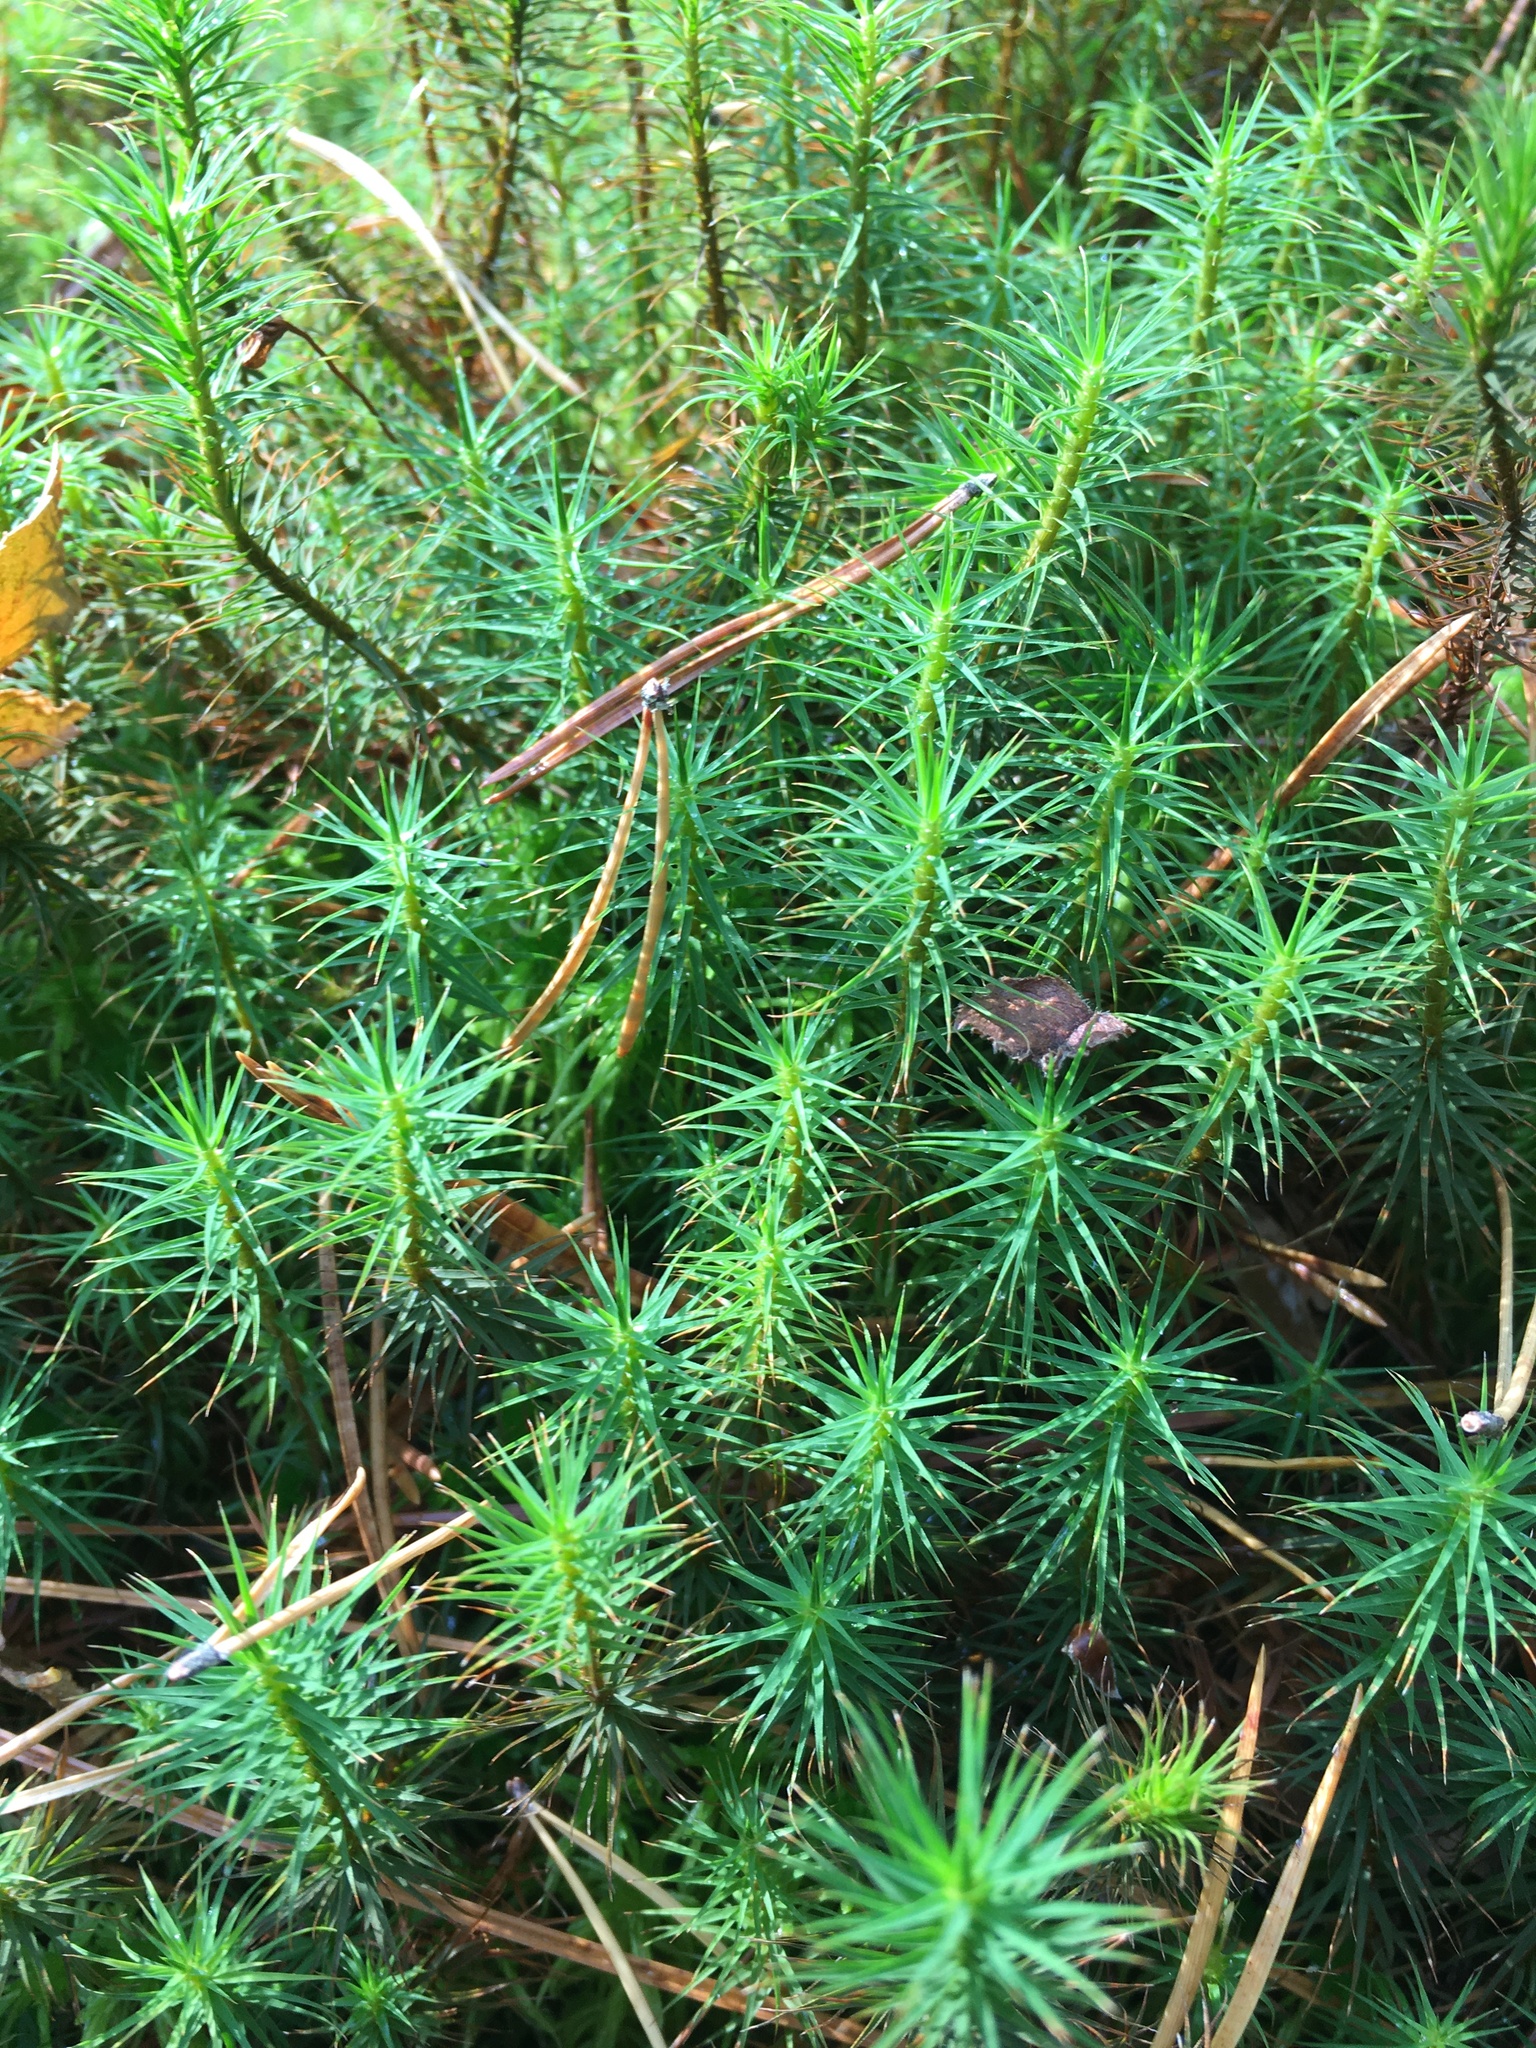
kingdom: Plantae
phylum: Bryophyta
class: Polytrichopsida
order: Polytrichales
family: Polytrichaceae
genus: Polytrichum
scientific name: Polytrichum commune
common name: Common haircap
